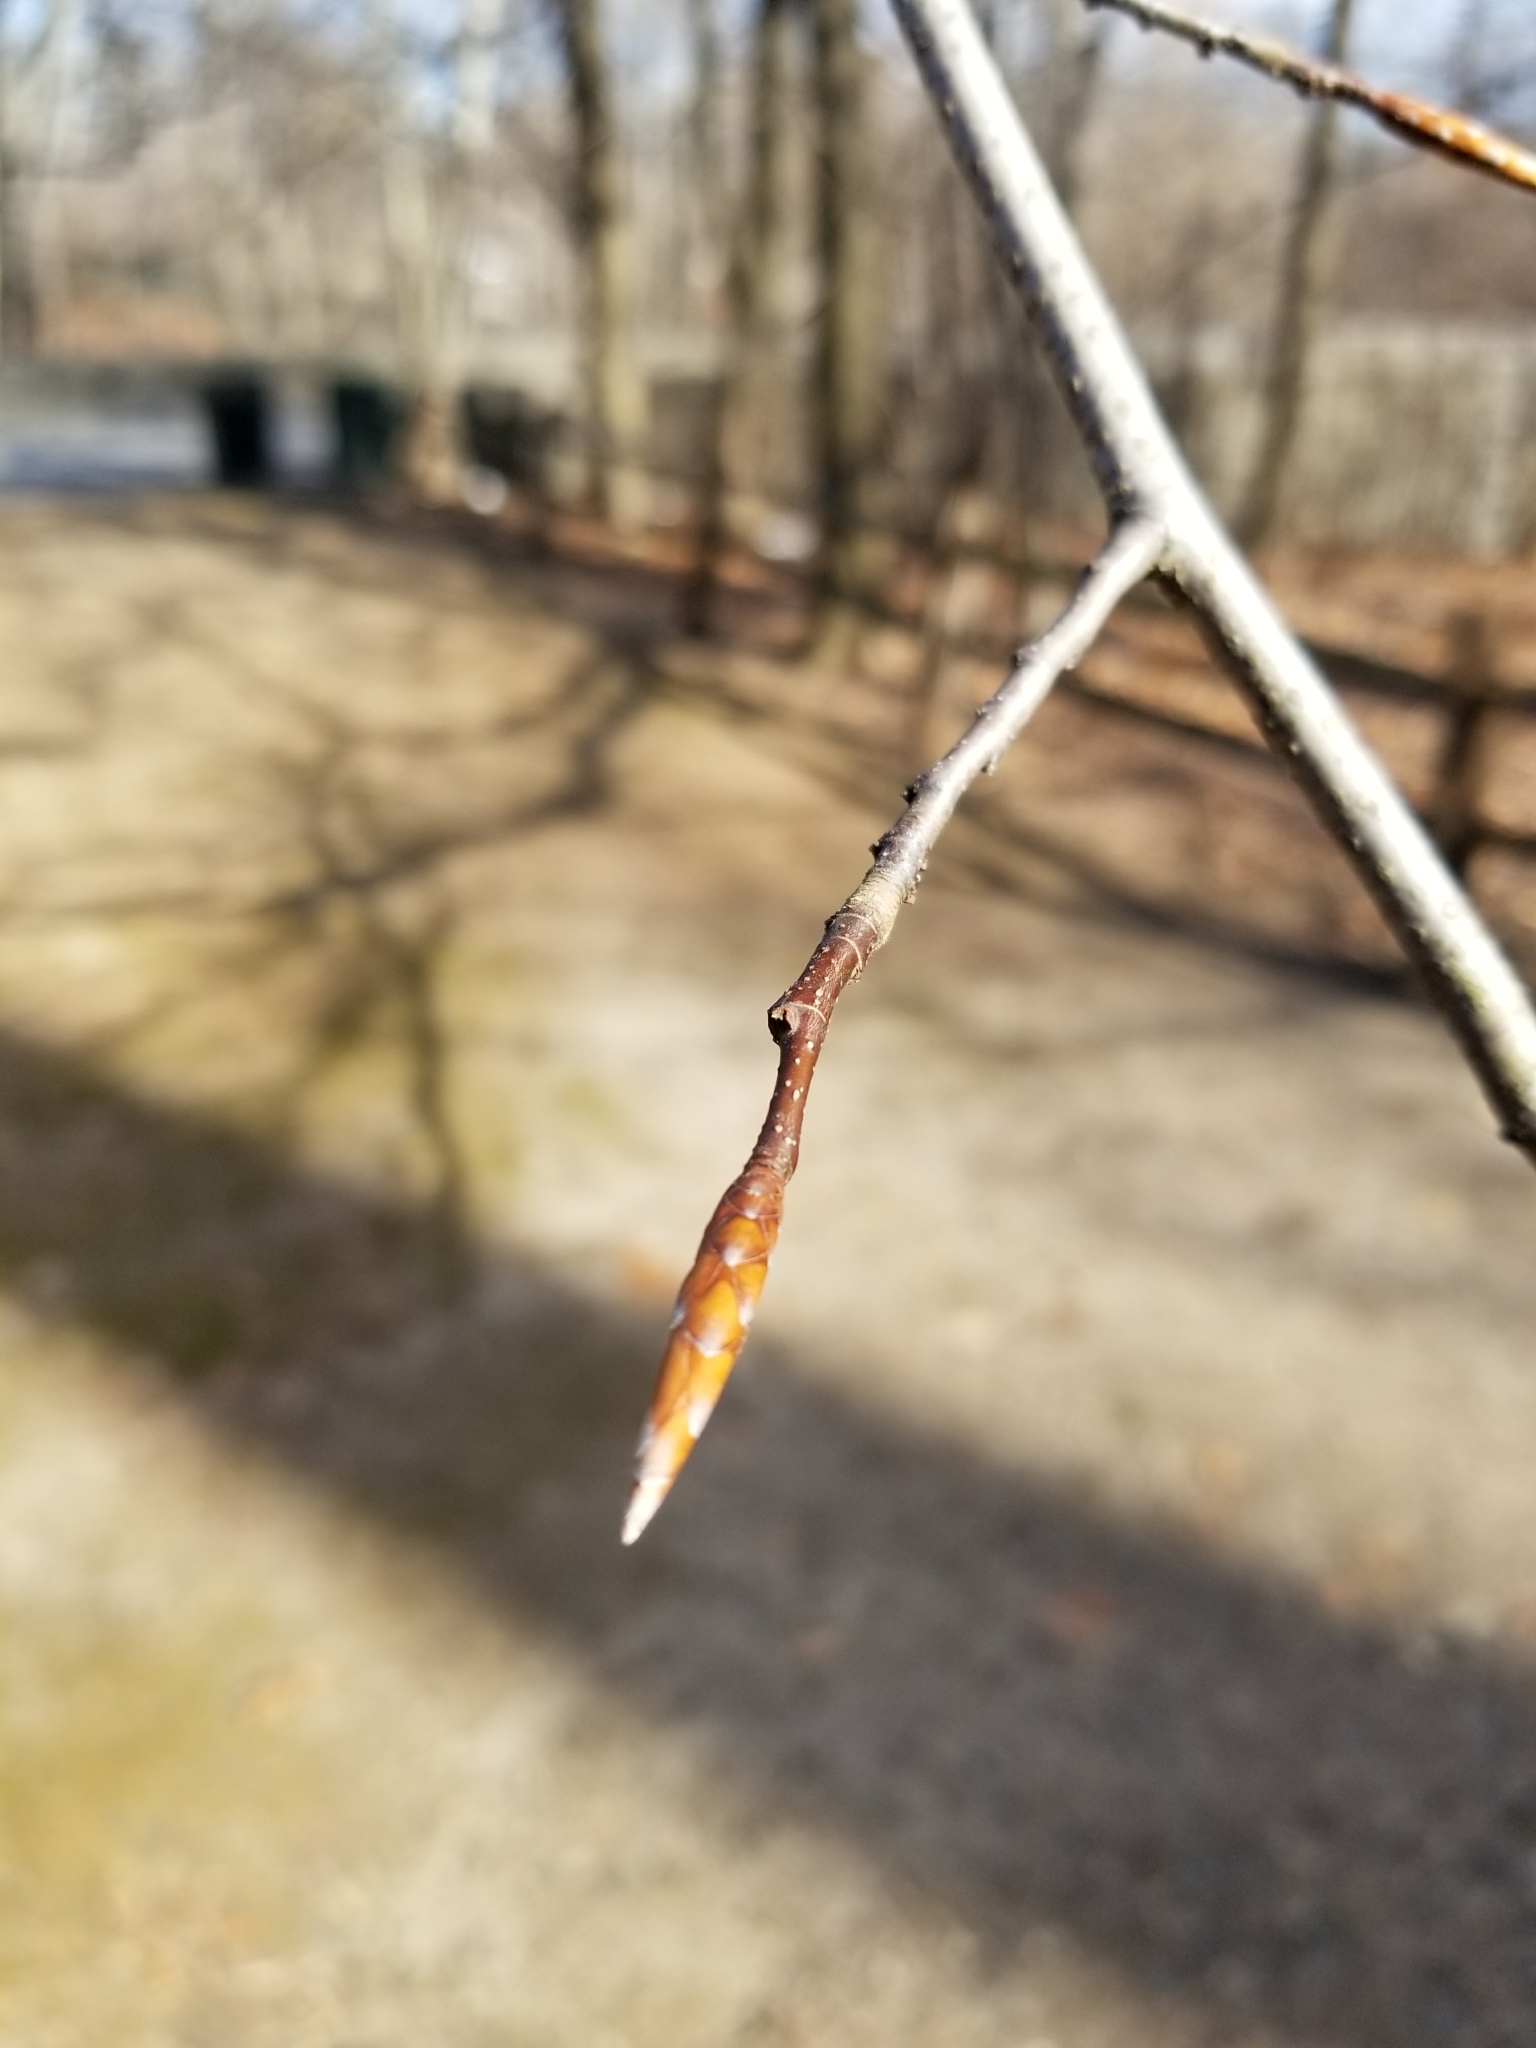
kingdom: Plantae
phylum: Tracheophyta
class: Magnoliopsida
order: Fagales
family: Fagaceae
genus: Fagus
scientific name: Fagus grandifolia
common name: American beech
